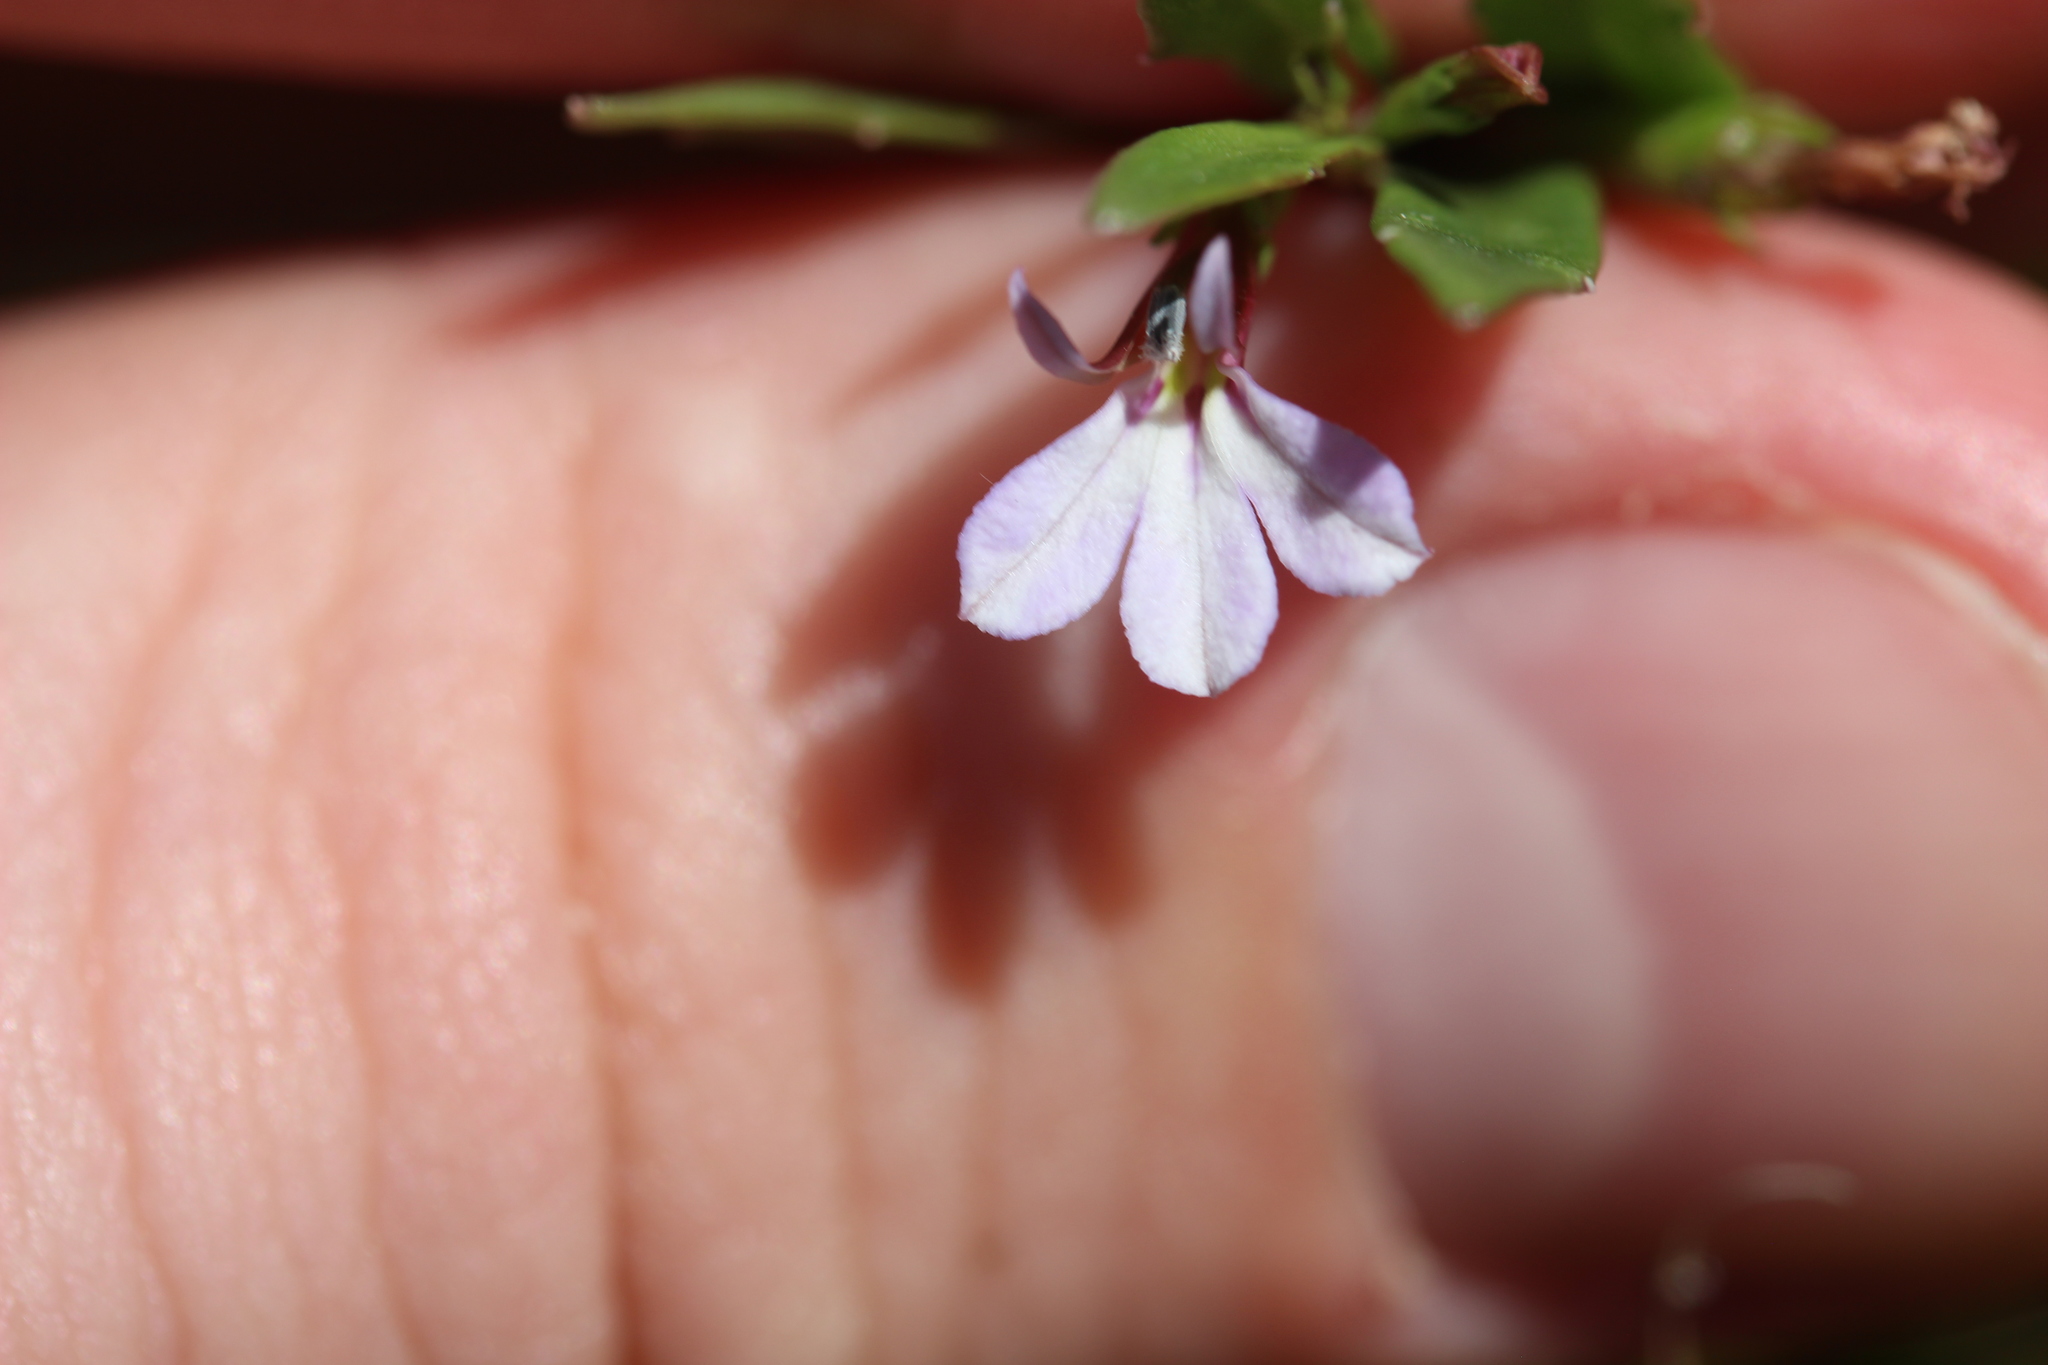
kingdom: Plantae
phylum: Tracheophyta
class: Magnoliopsida
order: Asterales
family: Campanulaceae
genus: Lobelia
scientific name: Lobelia anceps
